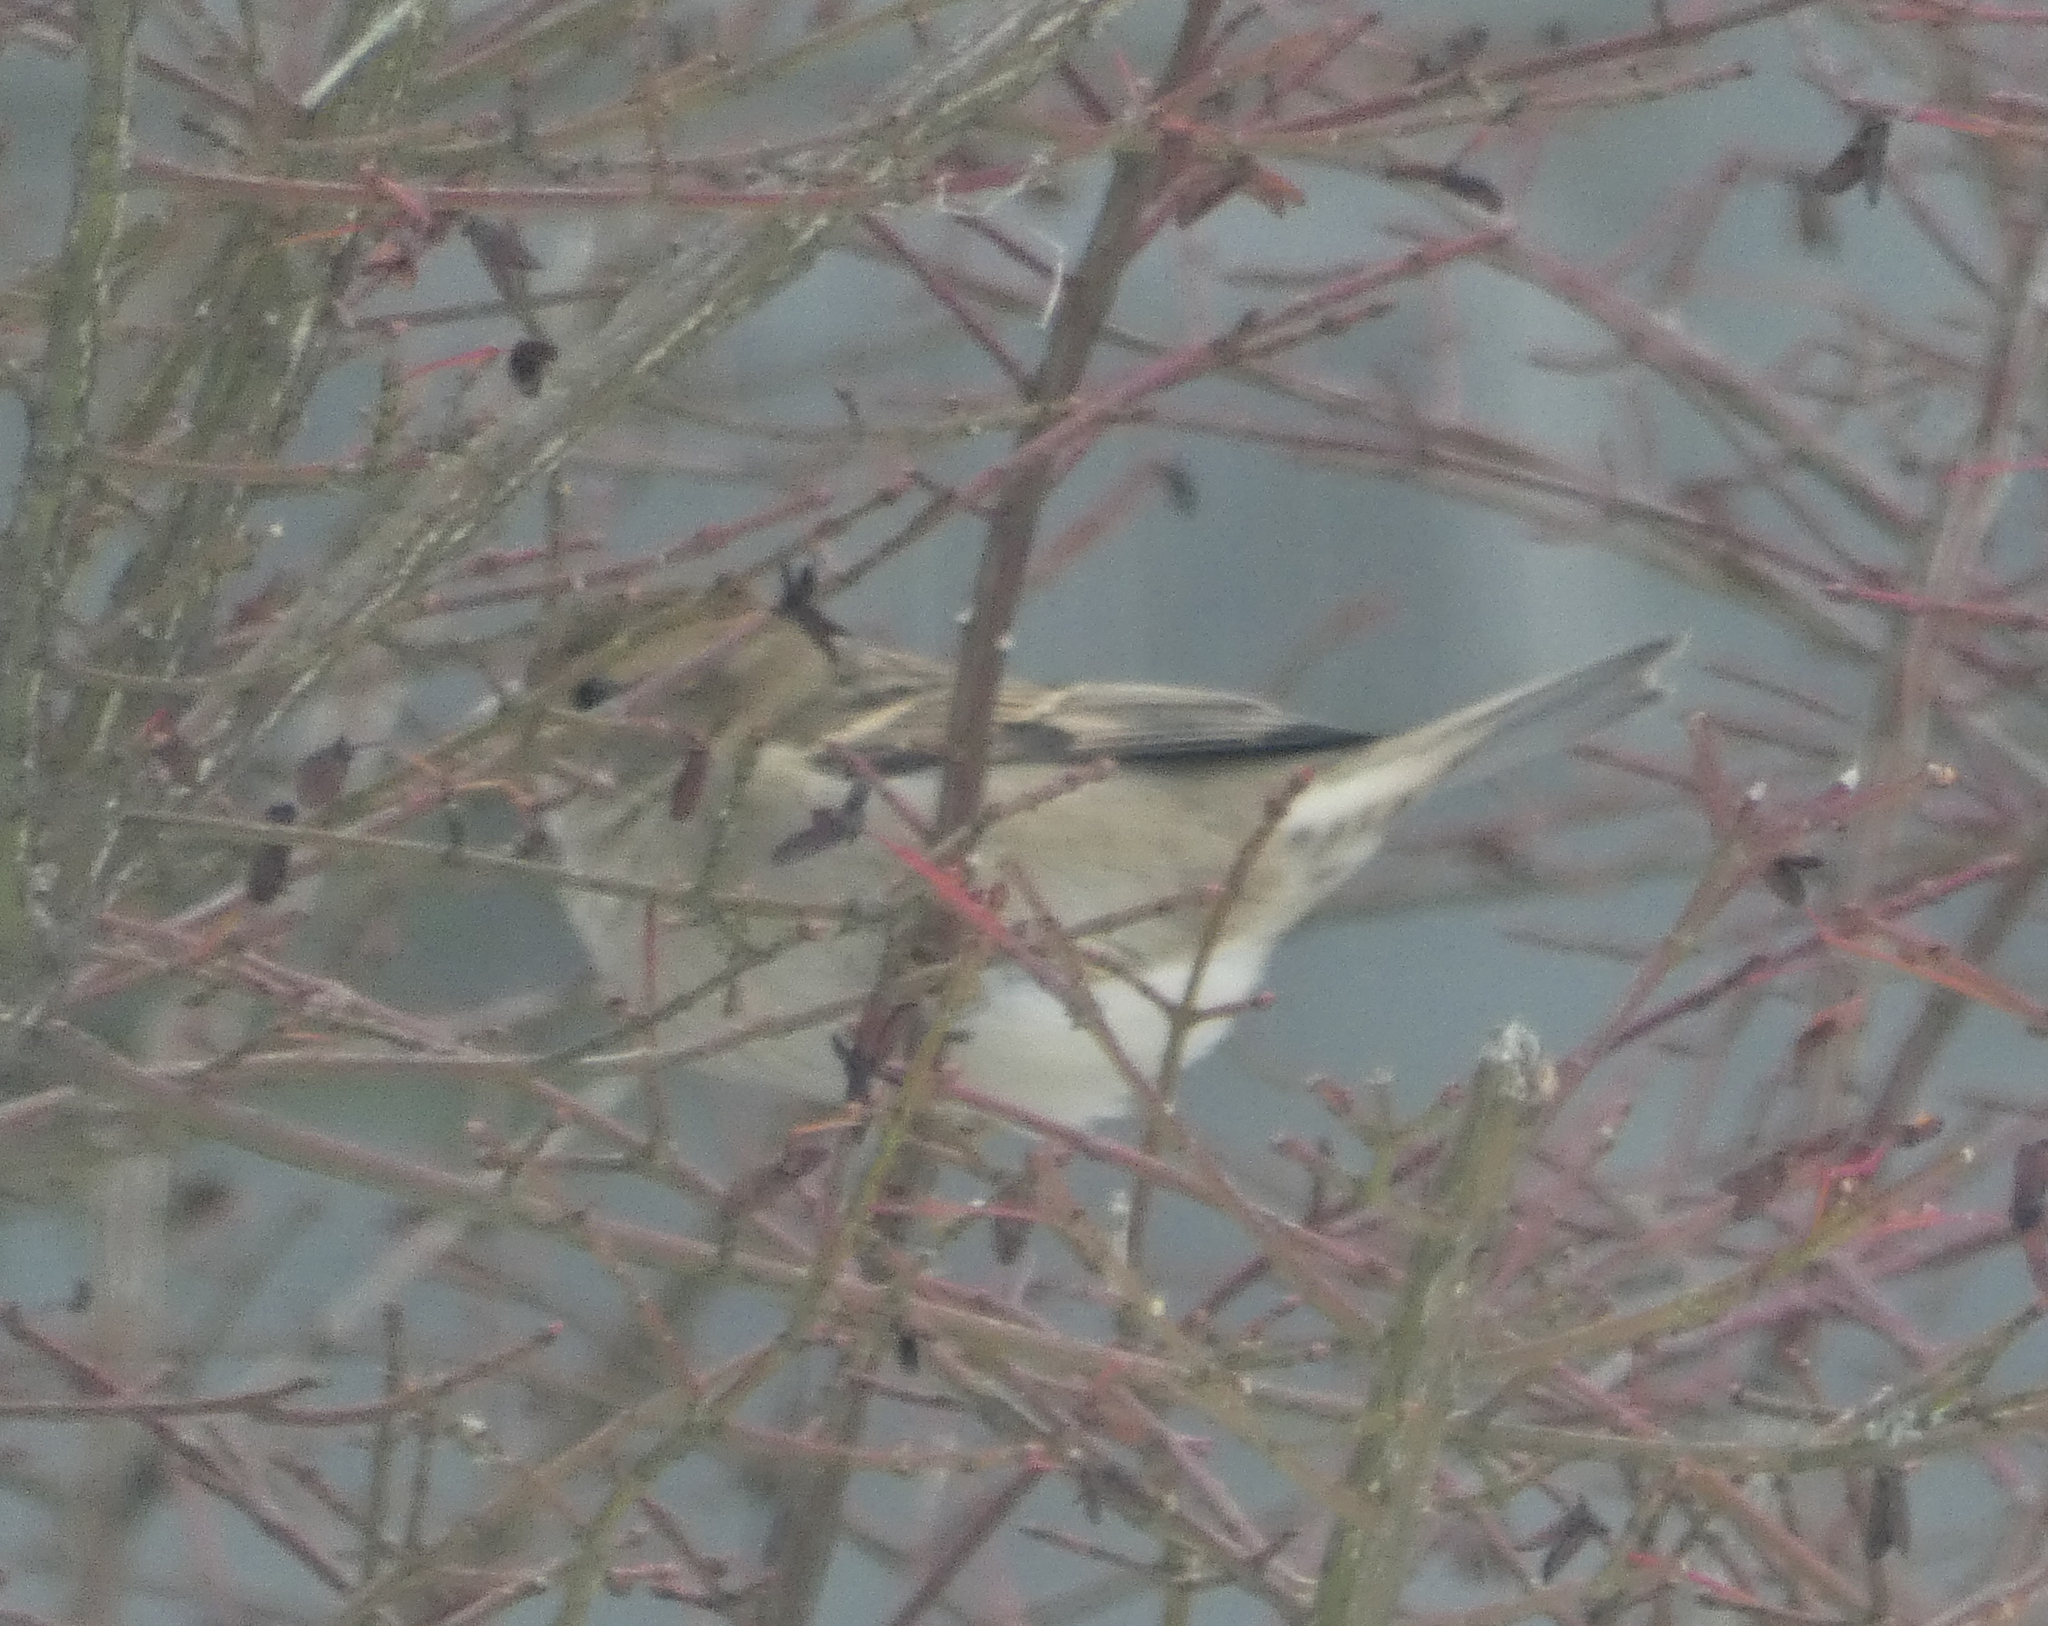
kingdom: Animalia
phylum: Chordata
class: Aves
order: Passeriformes
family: Passeridae
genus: Passer
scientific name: Passer domesticus
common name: House sparrow
